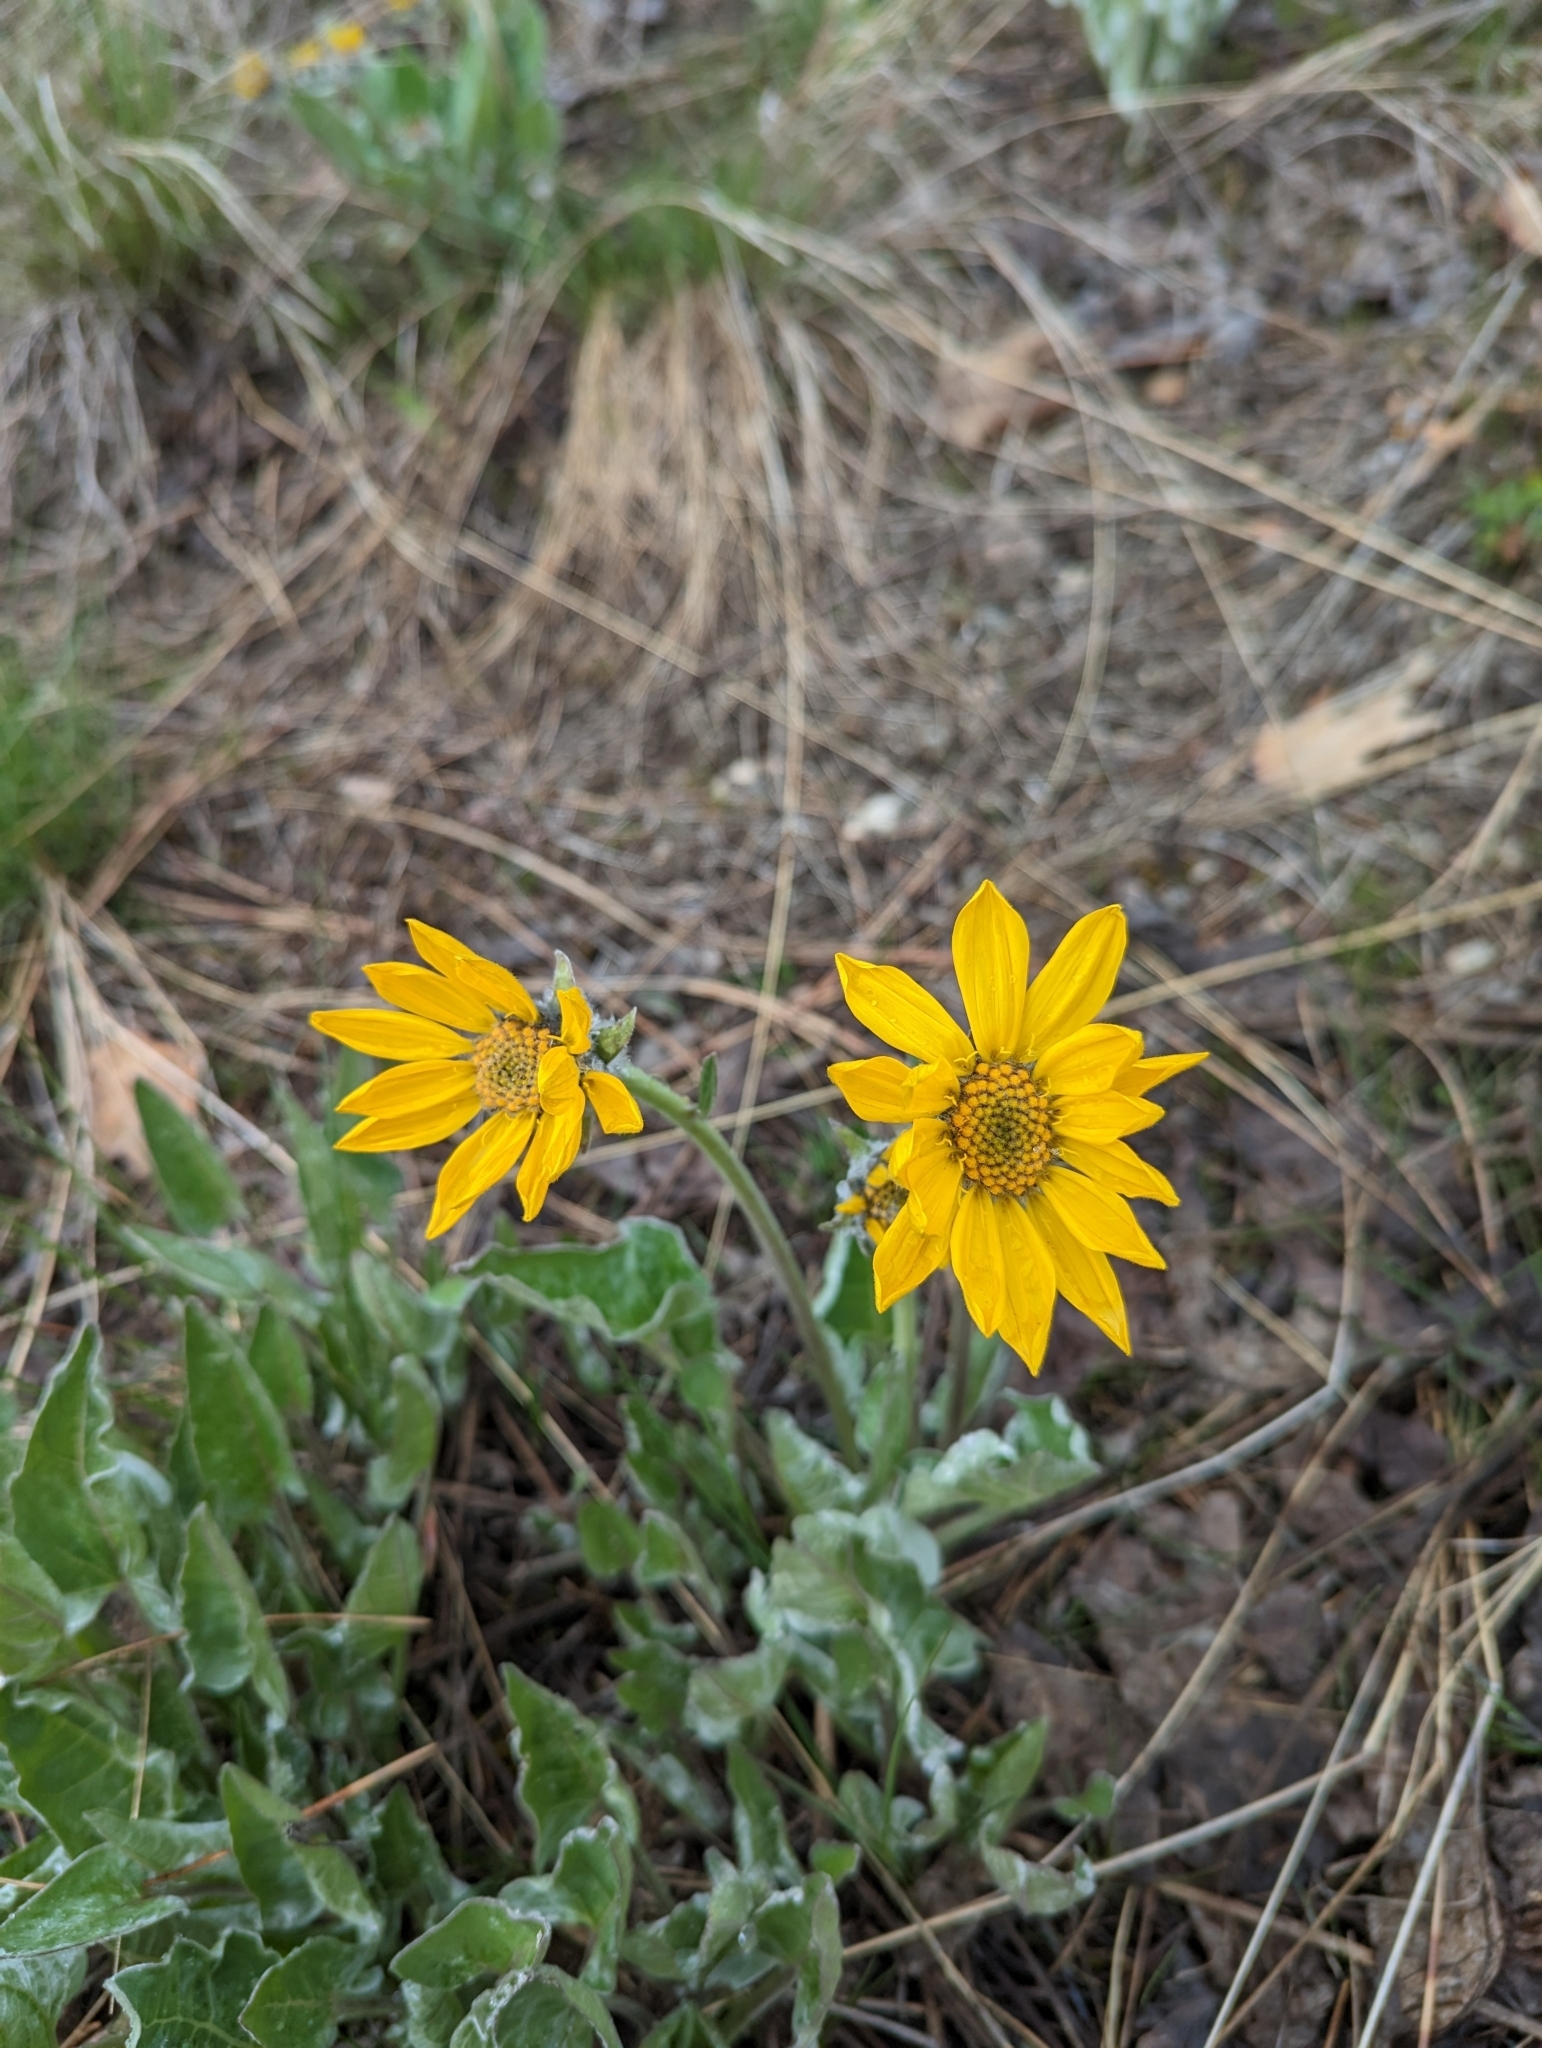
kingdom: Plantae
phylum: Tracheophyta
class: Magnoliopsida
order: Asterales
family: Asteraceae
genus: Wyethia
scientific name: Wyethia sagittata
